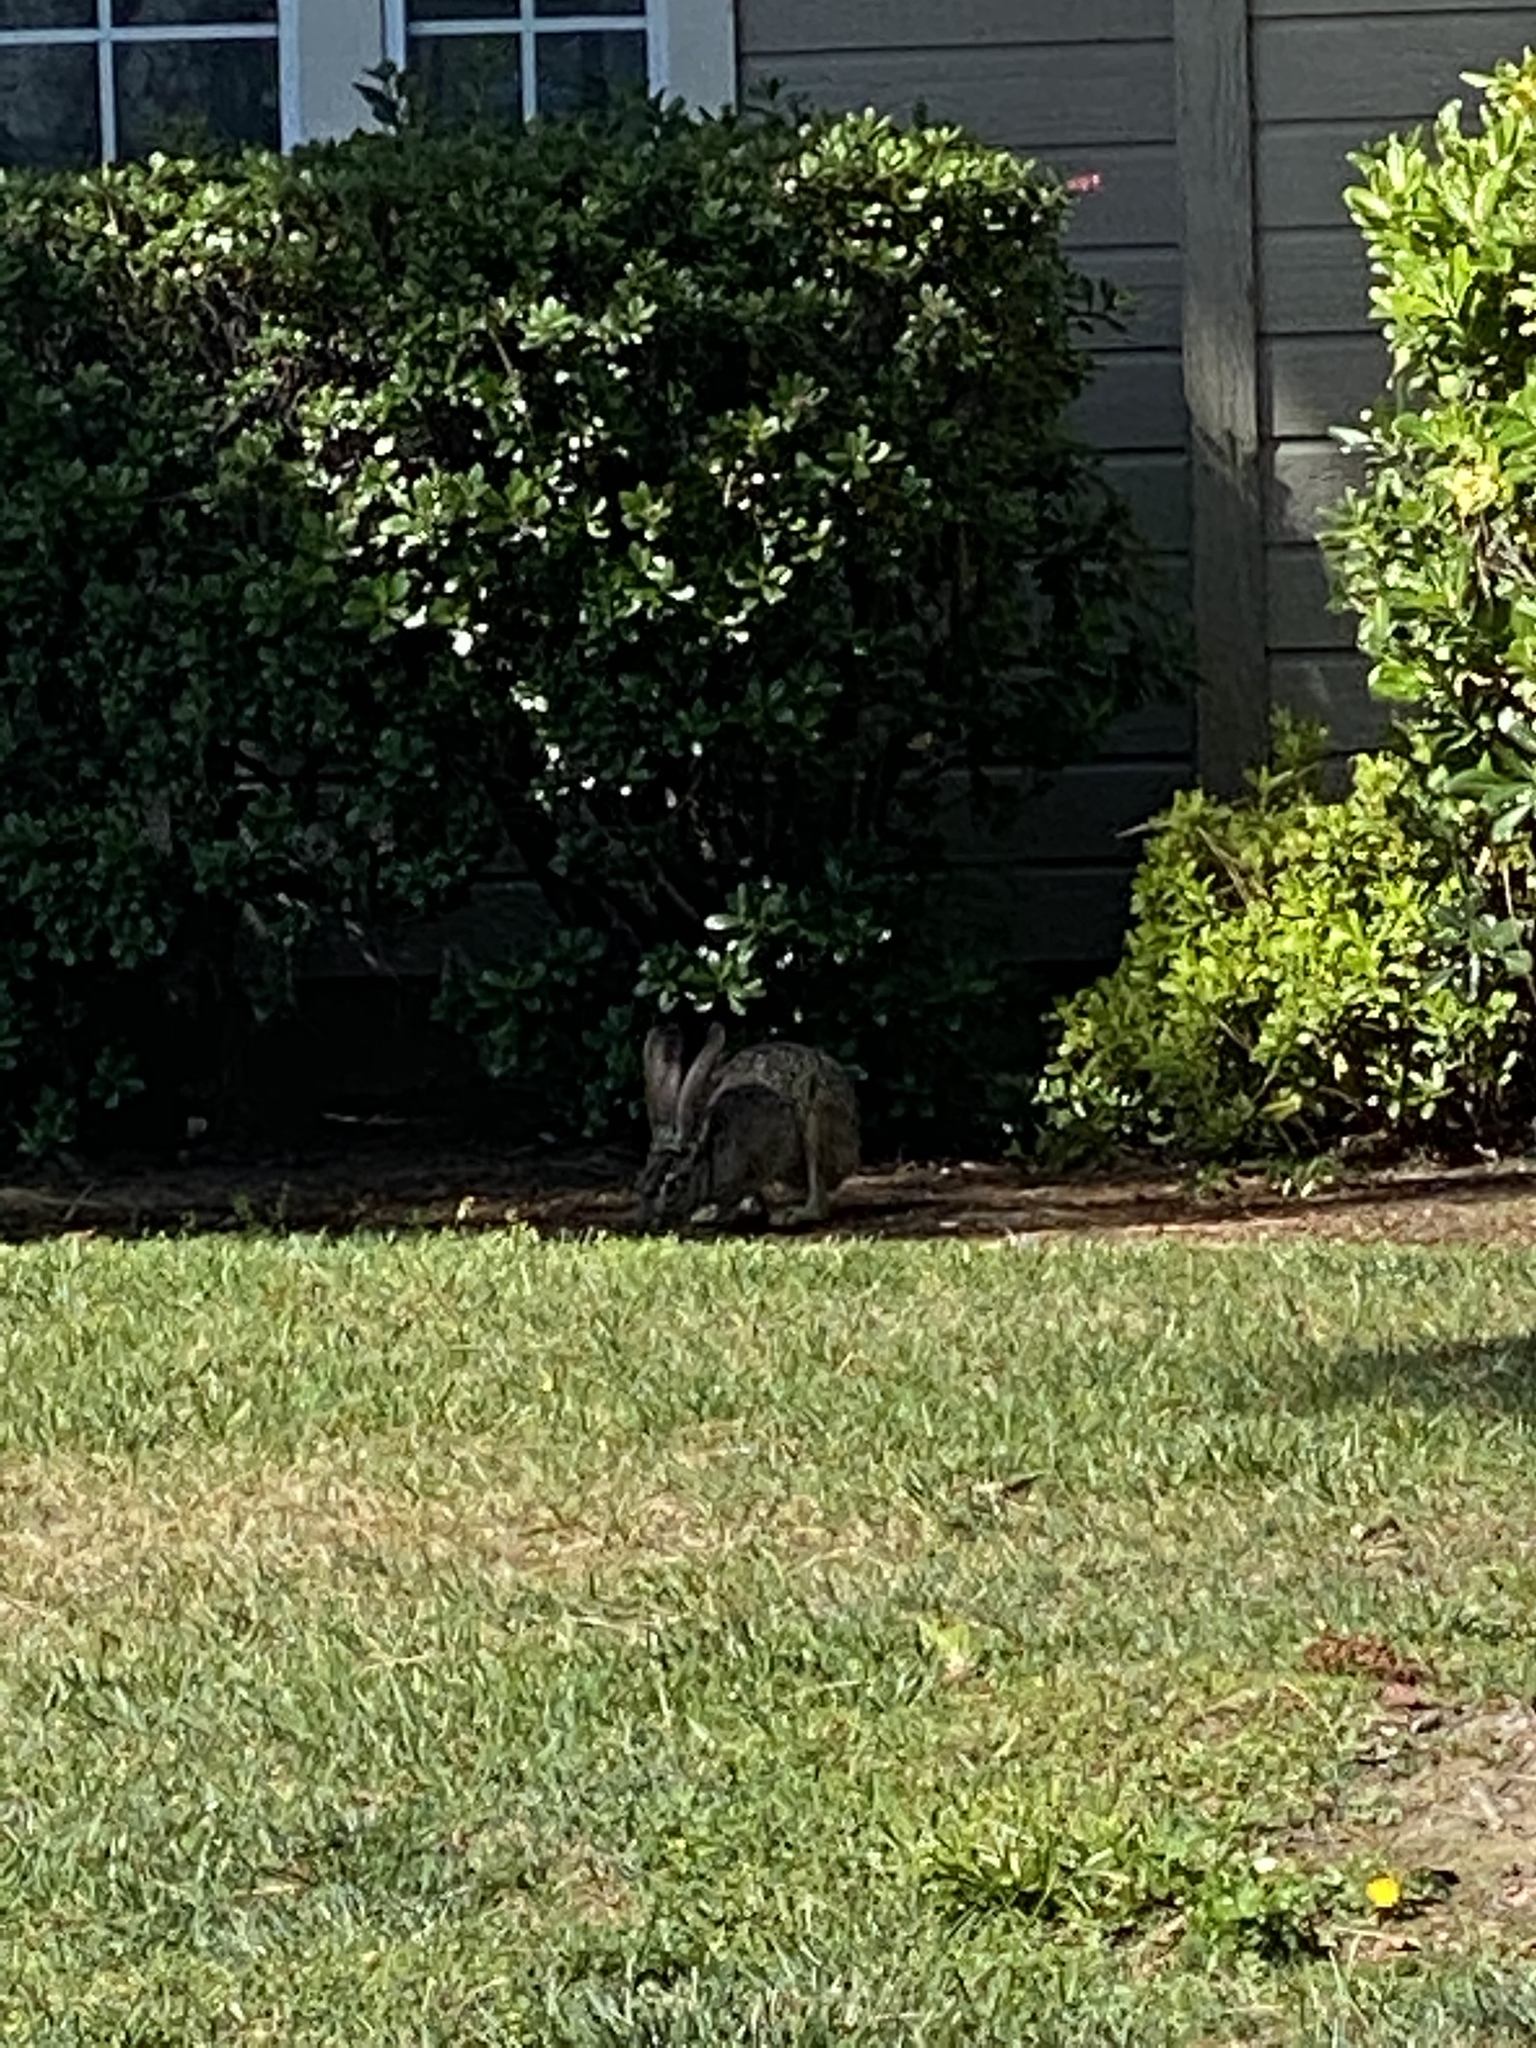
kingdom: Animalia
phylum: Chordata
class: Mammalia
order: Lagomorpha
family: Leporidae
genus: Lepus
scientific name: Lepus californicus
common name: Black-tailed jackrabbit
